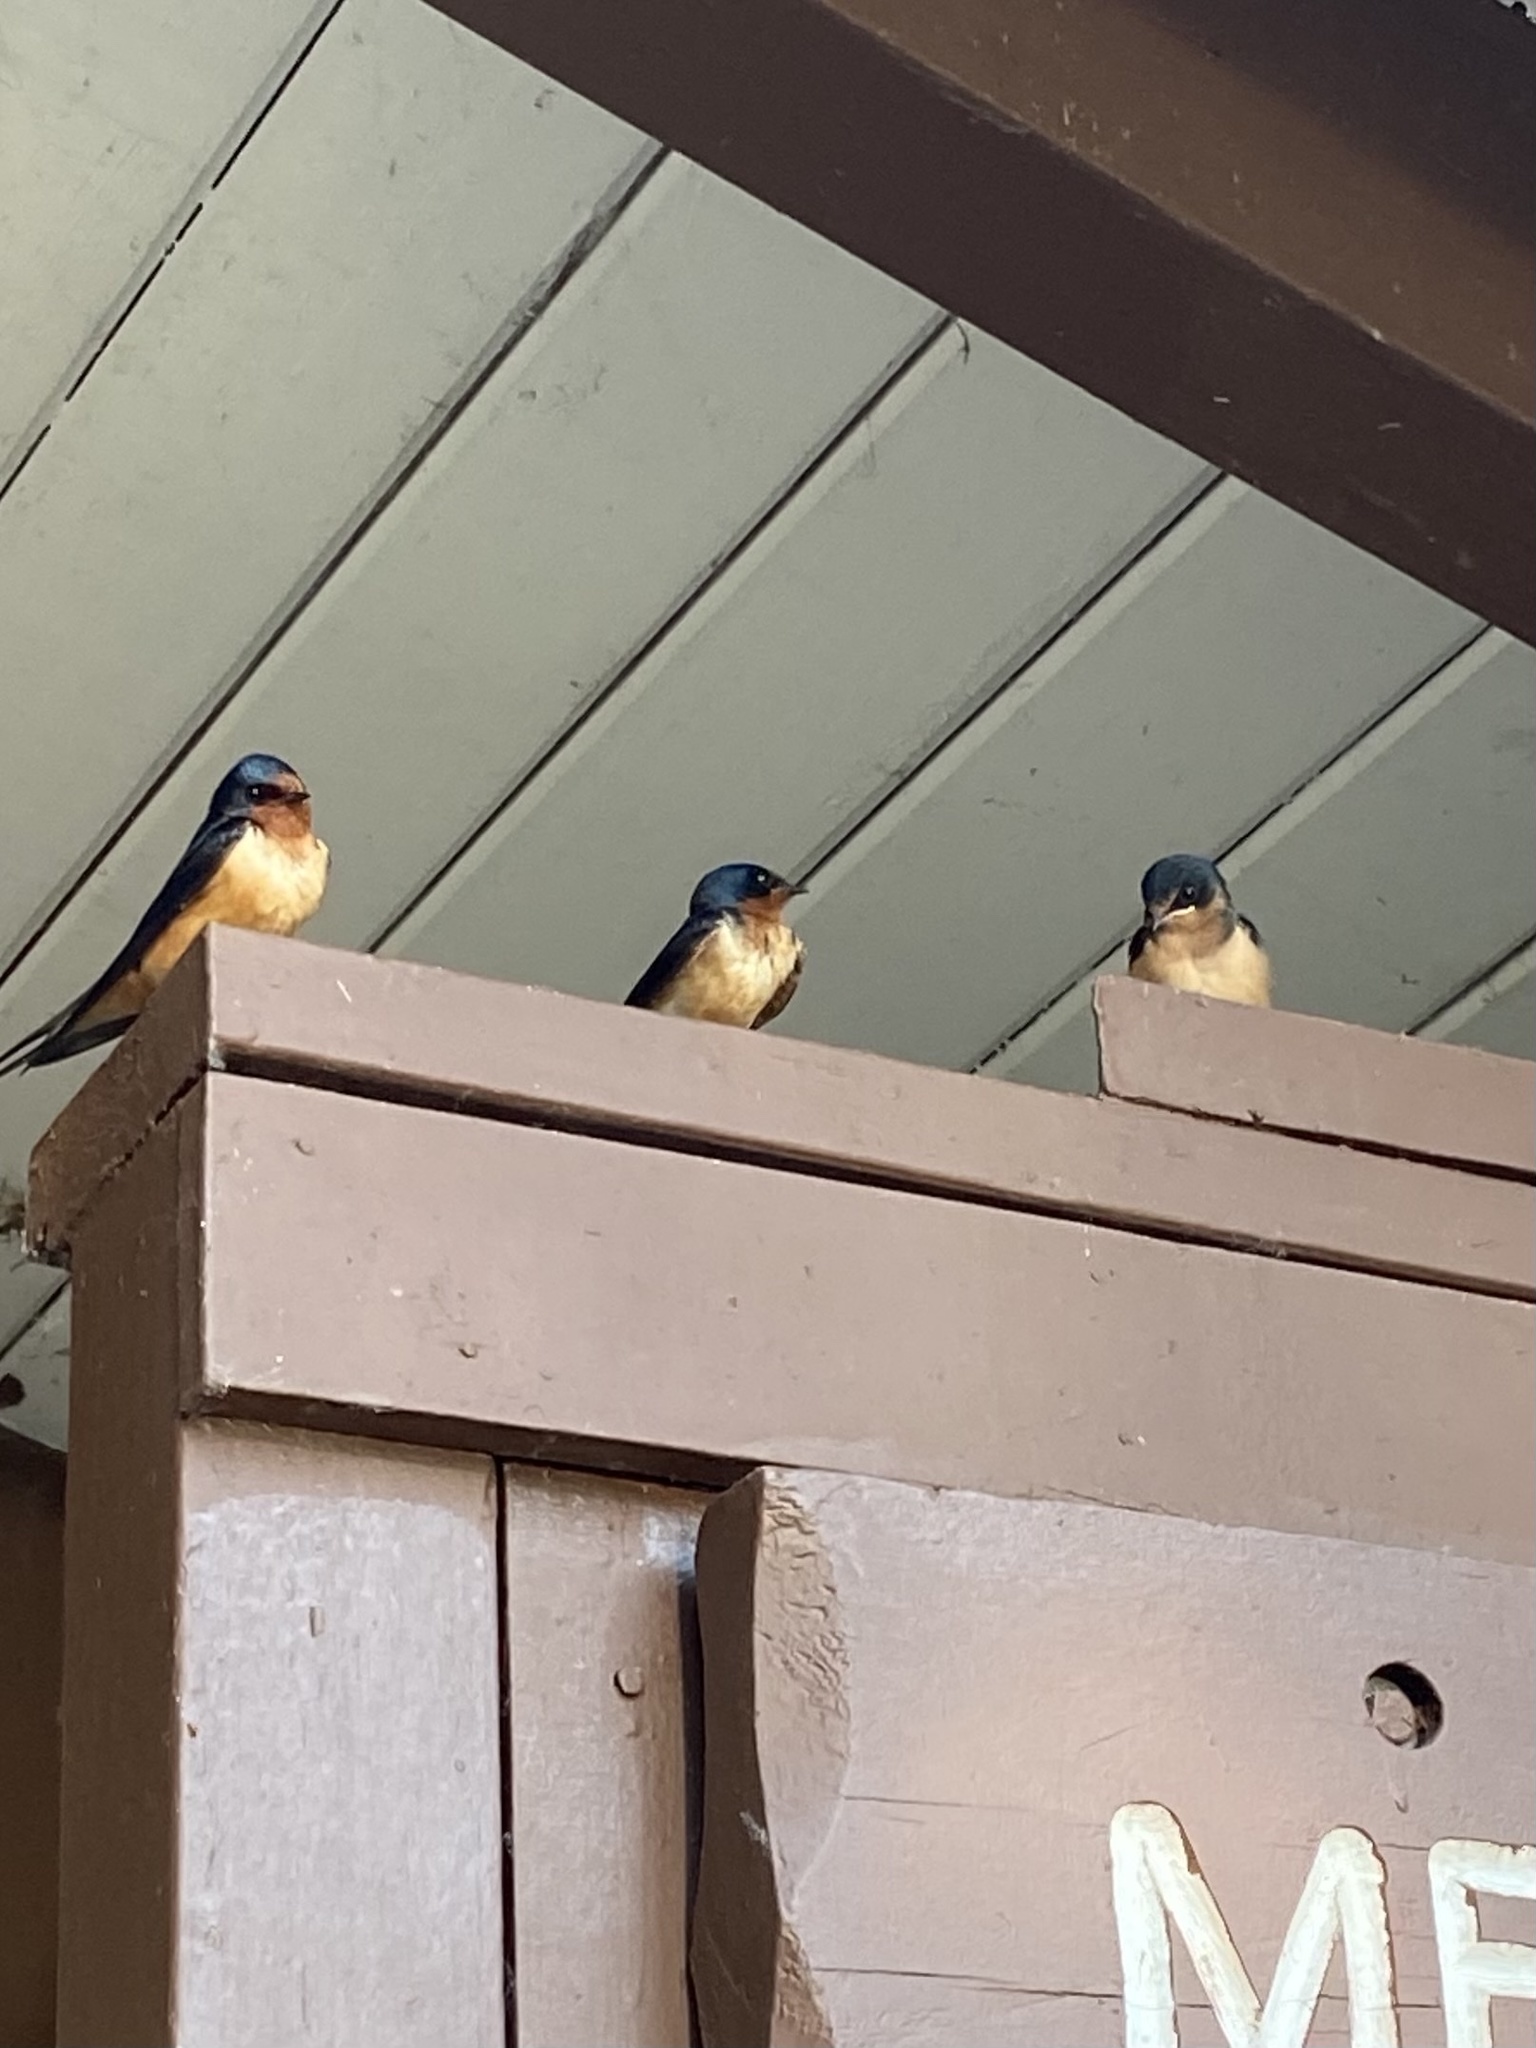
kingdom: Animalia
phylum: Chordata
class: Aves
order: Passeriformes
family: Hirundinidae
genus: Hirundo
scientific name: Hirundo rustica
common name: Barn swallow
